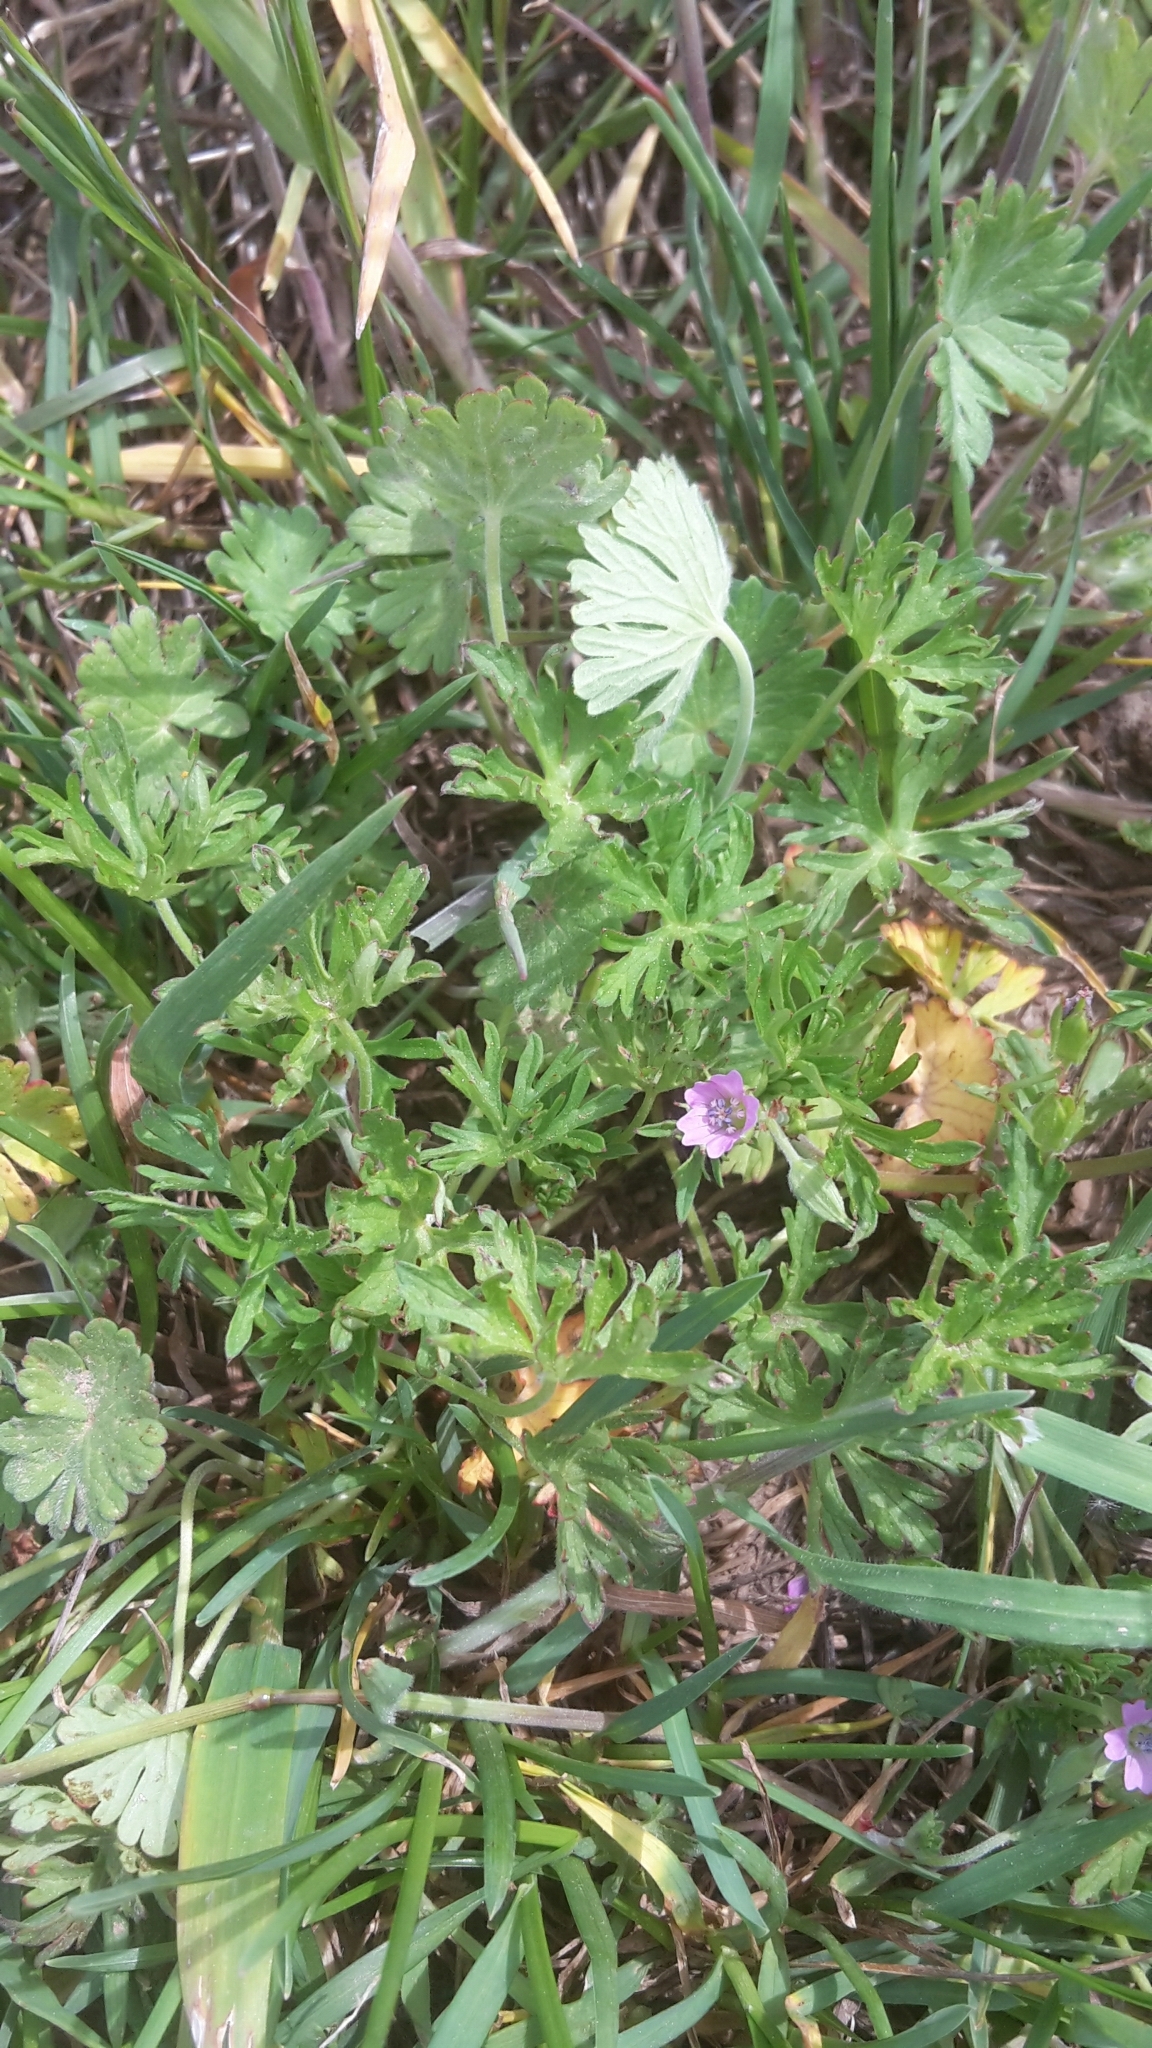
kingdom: Plantae
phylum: Tracheophyta
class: Magnoliopsida
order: Geraniales
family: Geraniaceae
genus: Geranium
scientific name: Geranium dissectum
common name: Cut-leaved crane's-bill
